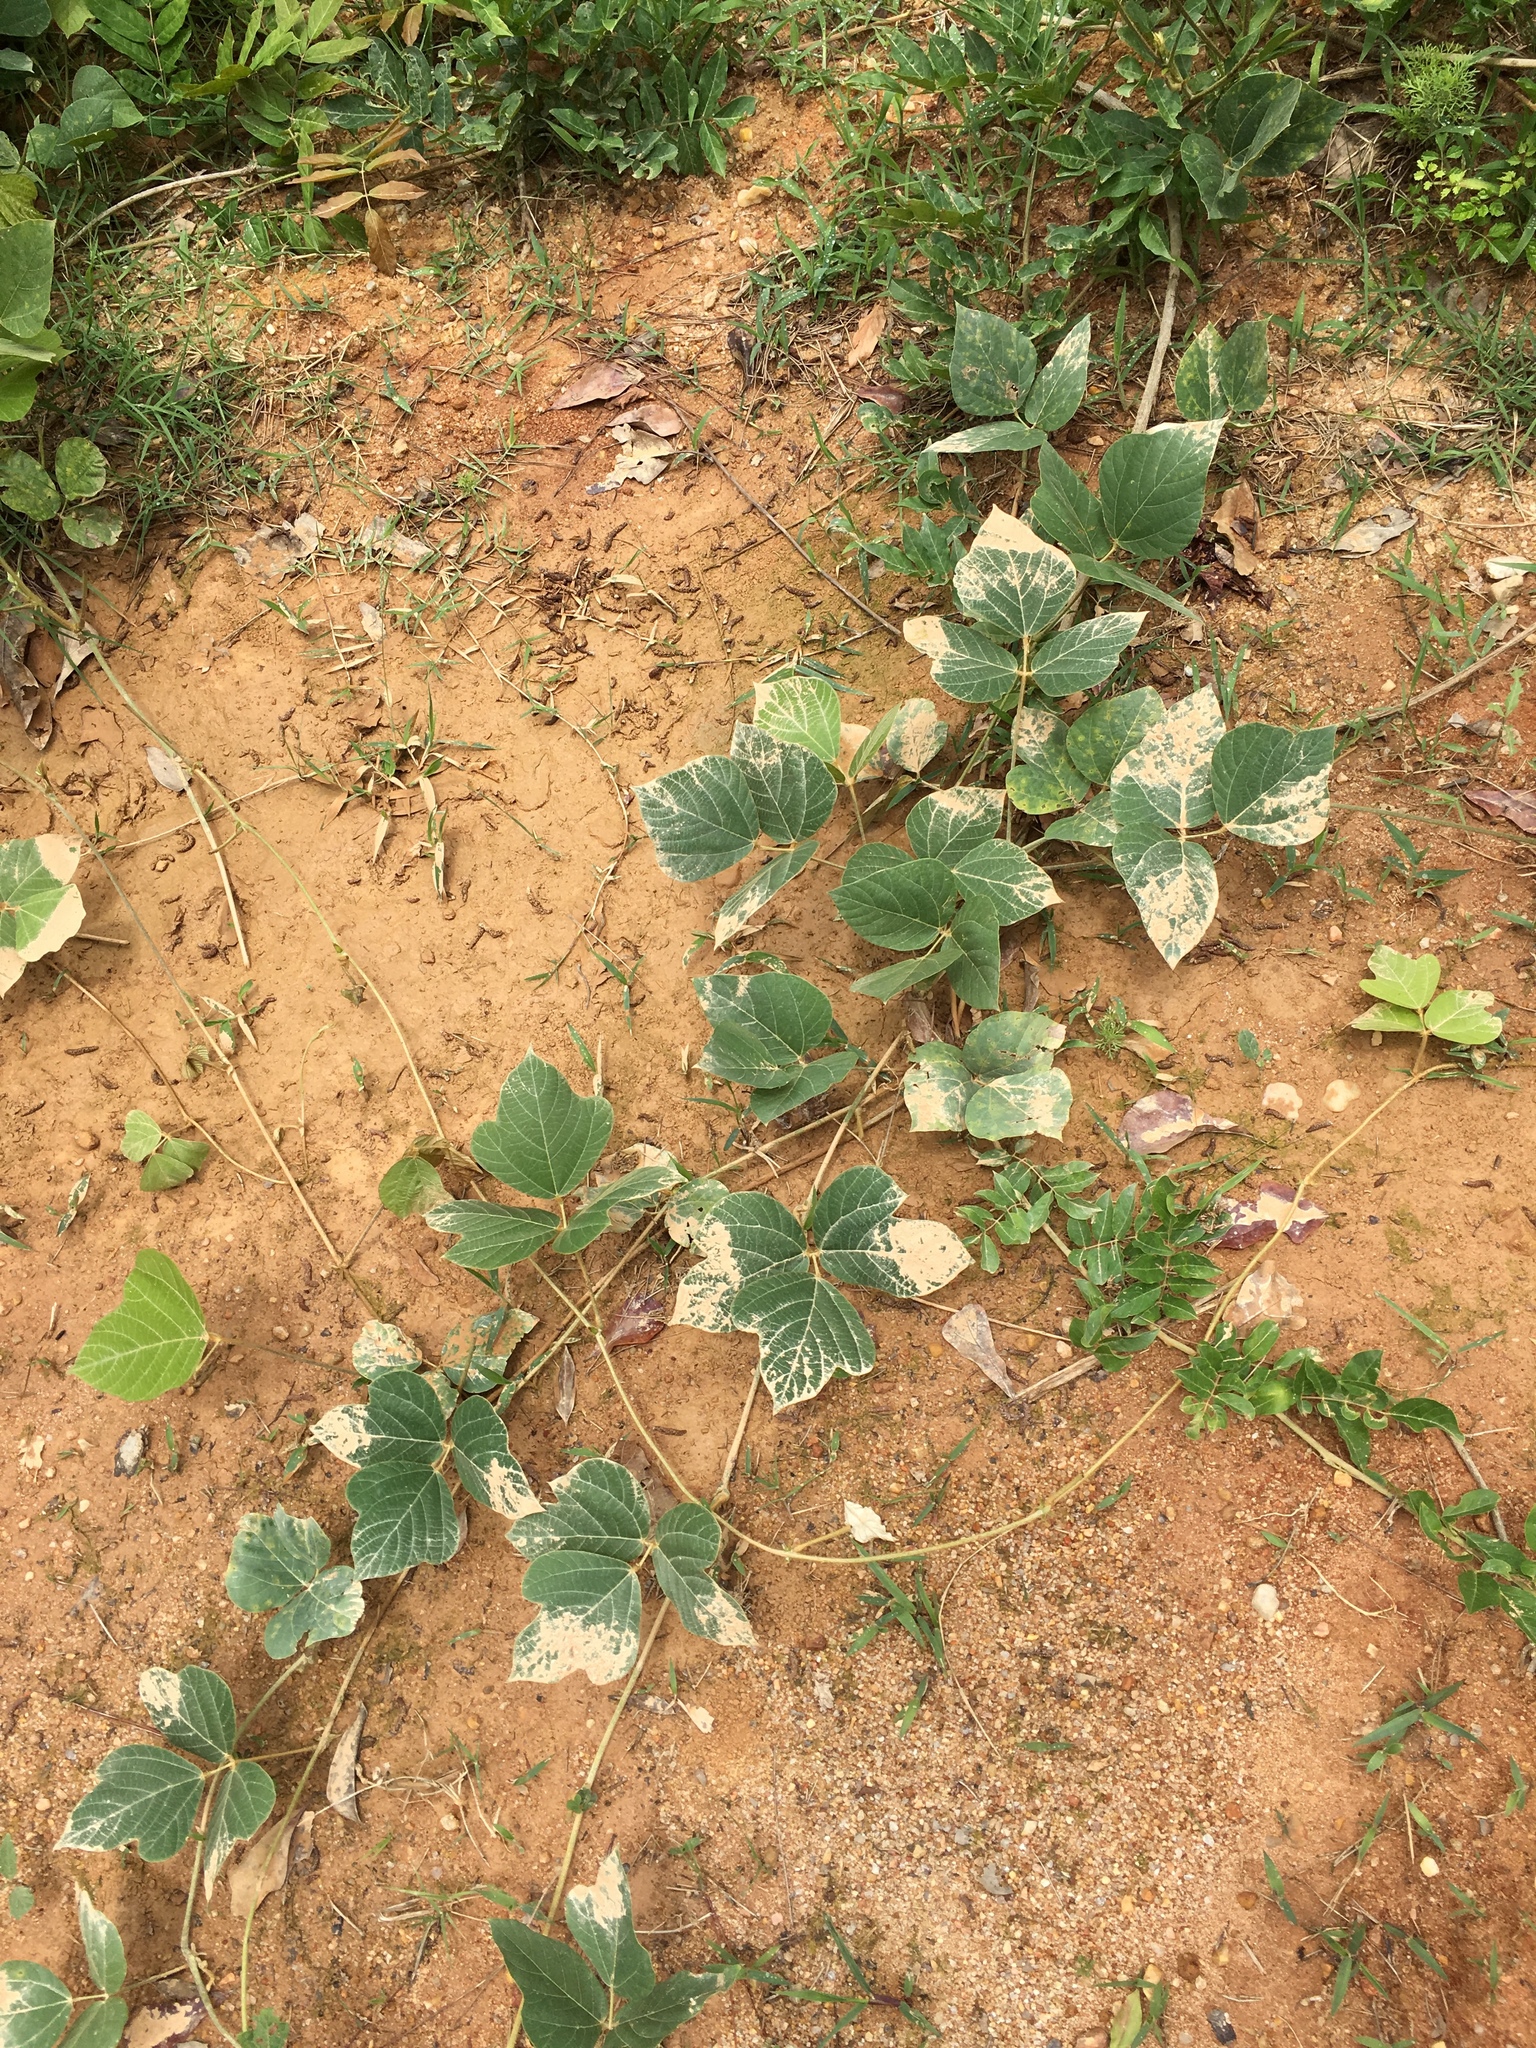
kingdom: Plantae
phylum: Tracheophyta
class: Magnoliopsida
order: Fabales
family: Fabaceae
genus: Pueraria
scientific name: Pueraria montana
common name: Kudzu
